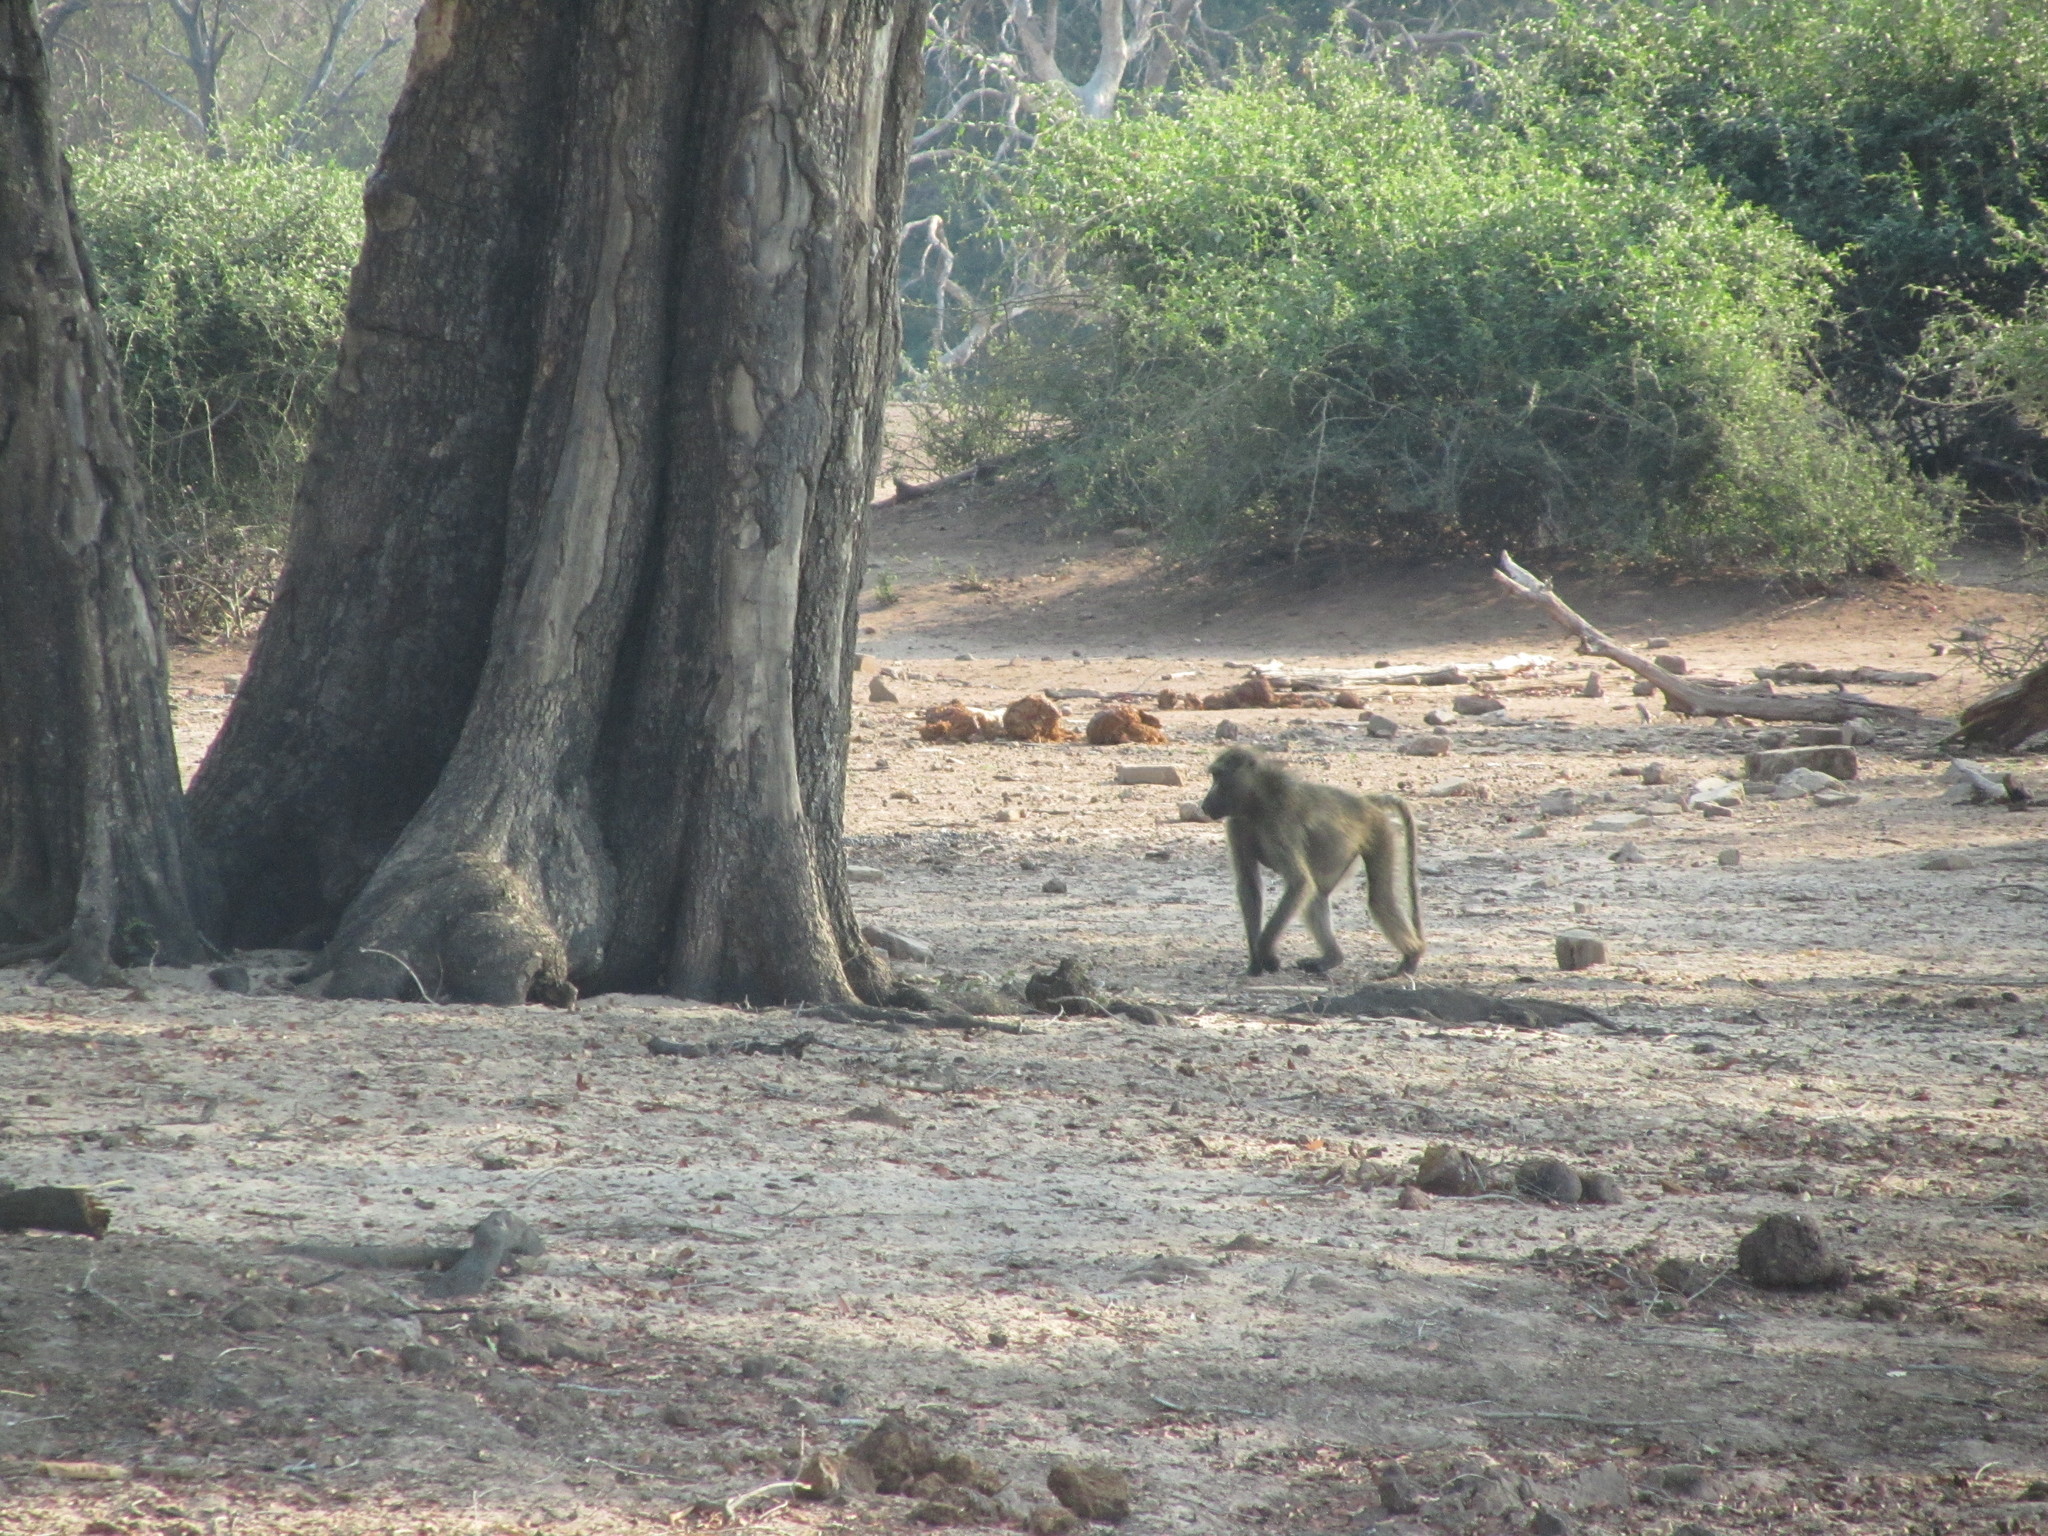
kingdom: Animalia
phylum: Chordata
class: Mammalia
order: Primates
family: Cercopithecidae
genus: Papio
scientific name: Papio ursinus
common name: Chacma baboon
